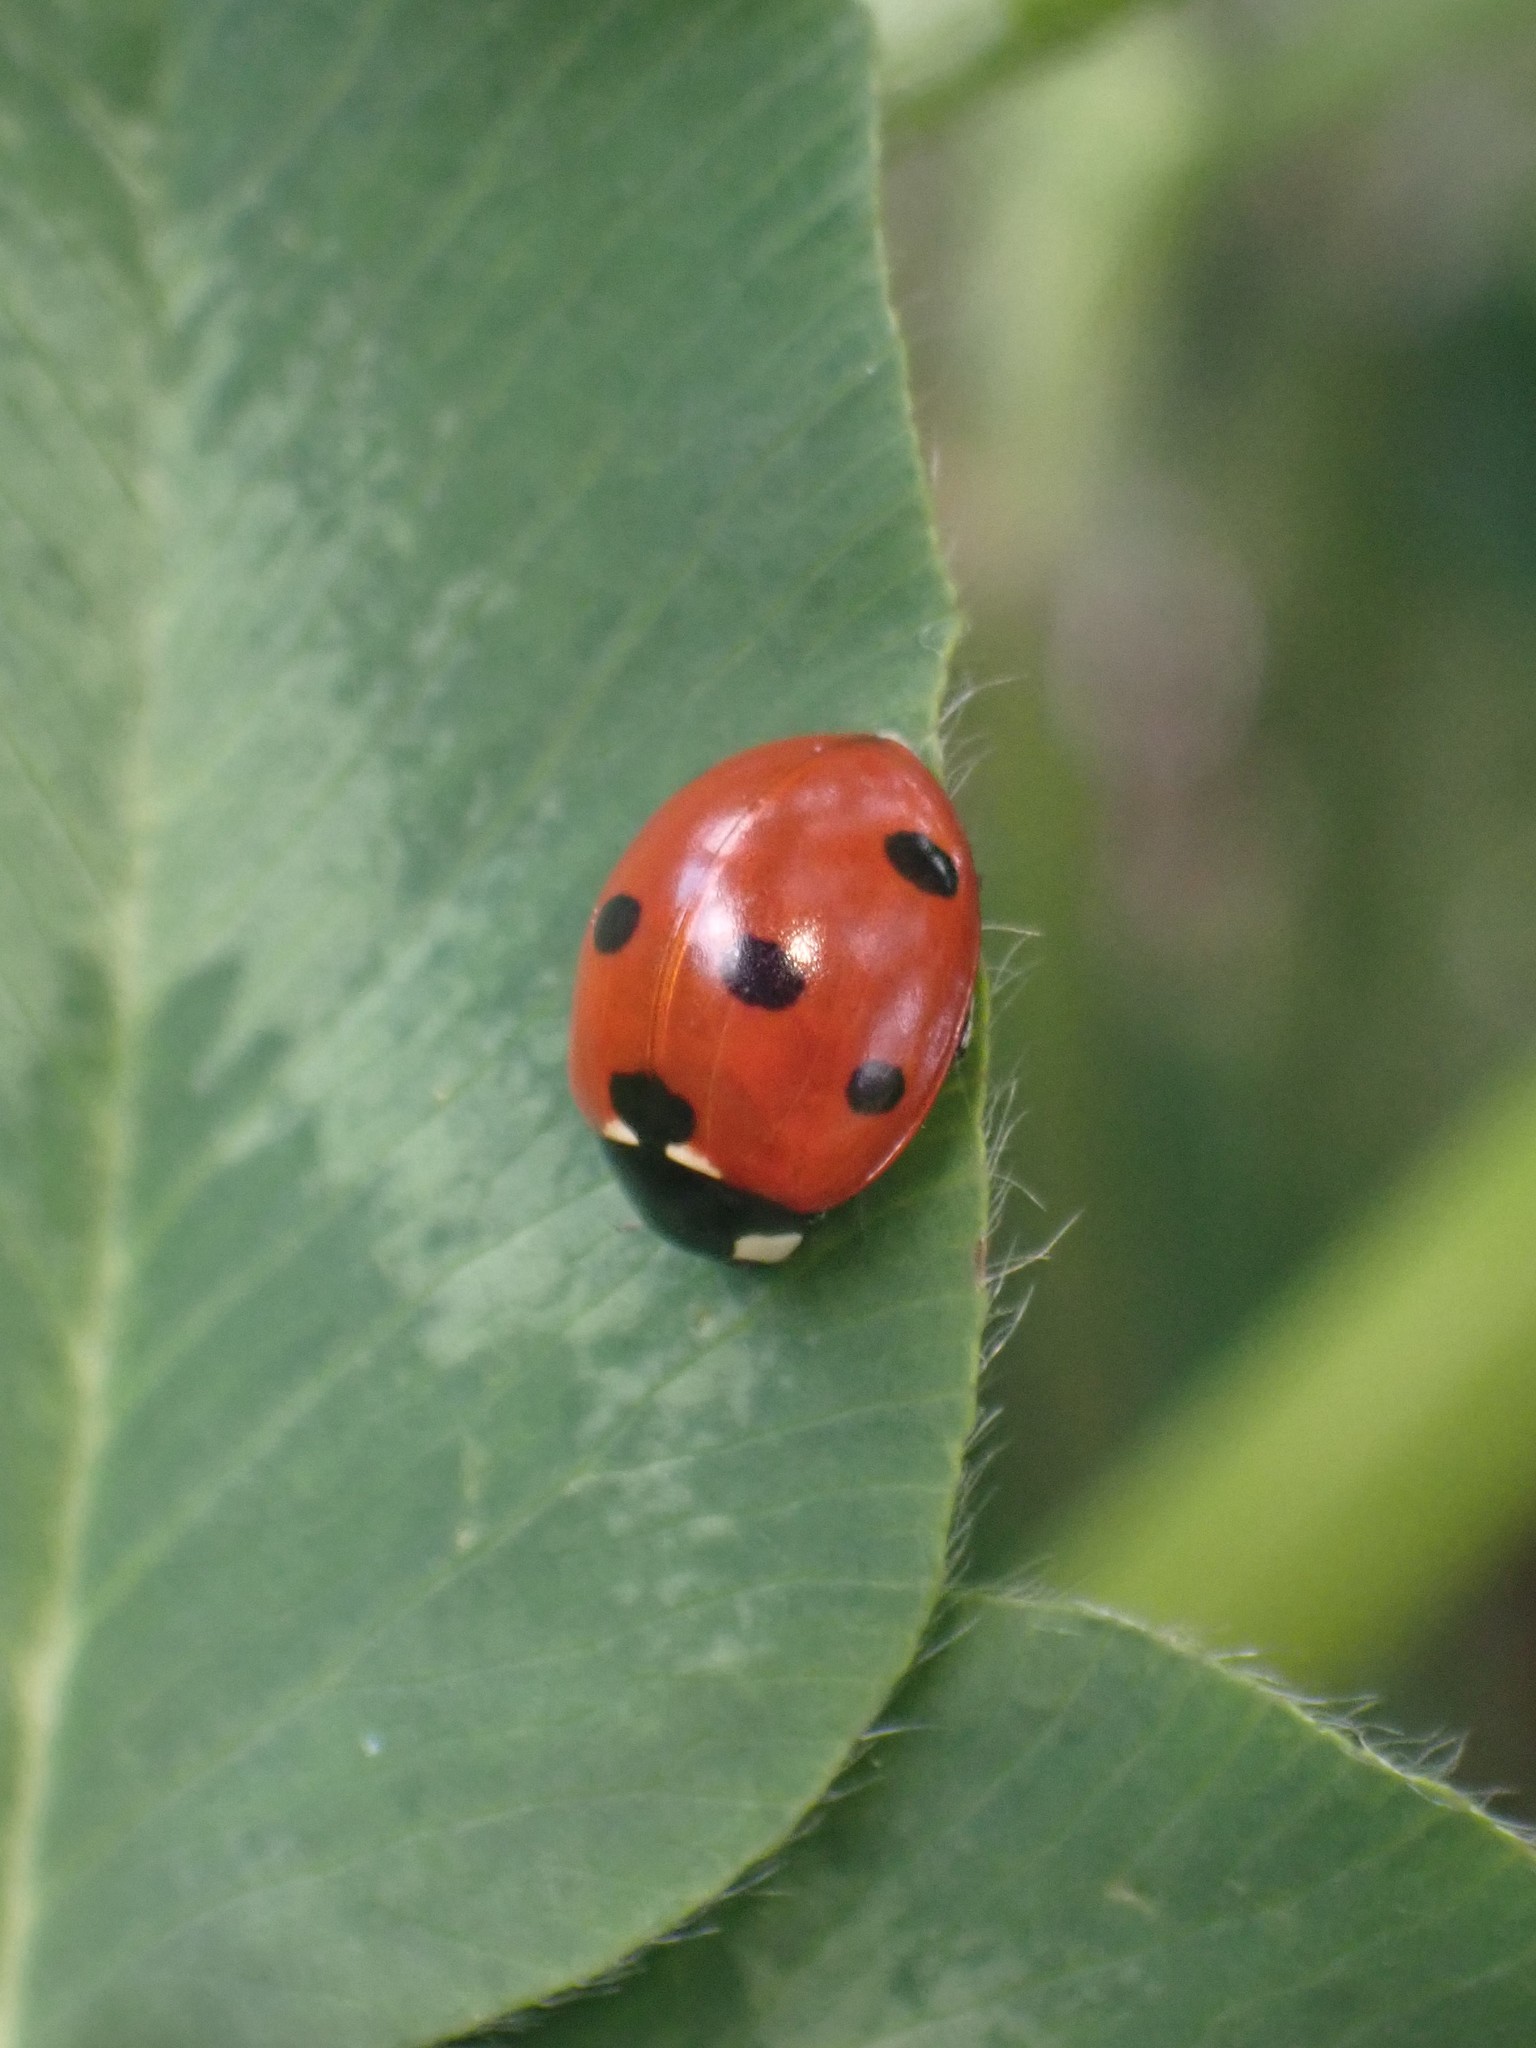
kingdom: Animalia
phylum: Arthropoda
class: Insecta
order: Coleoptera
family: Coccinellidae
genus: Coccinella
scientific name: Coccinella septempunctata
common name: Sevenspotted lady beetle
